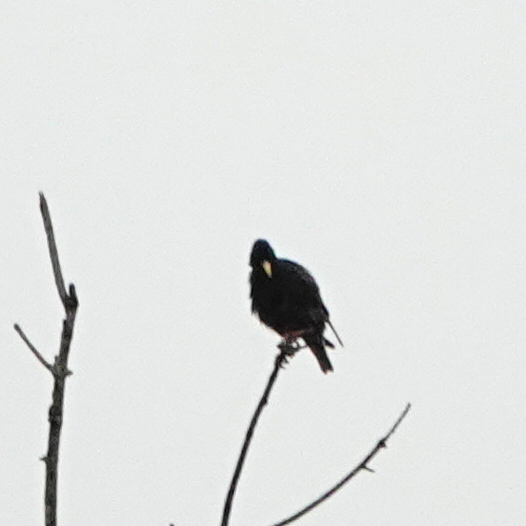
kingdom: Animalia
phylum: Chordata
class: Aves
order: Passeriformes
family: Sturnidae
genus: Sturnus
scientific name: Sturnus vulgaris
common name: Common starling
